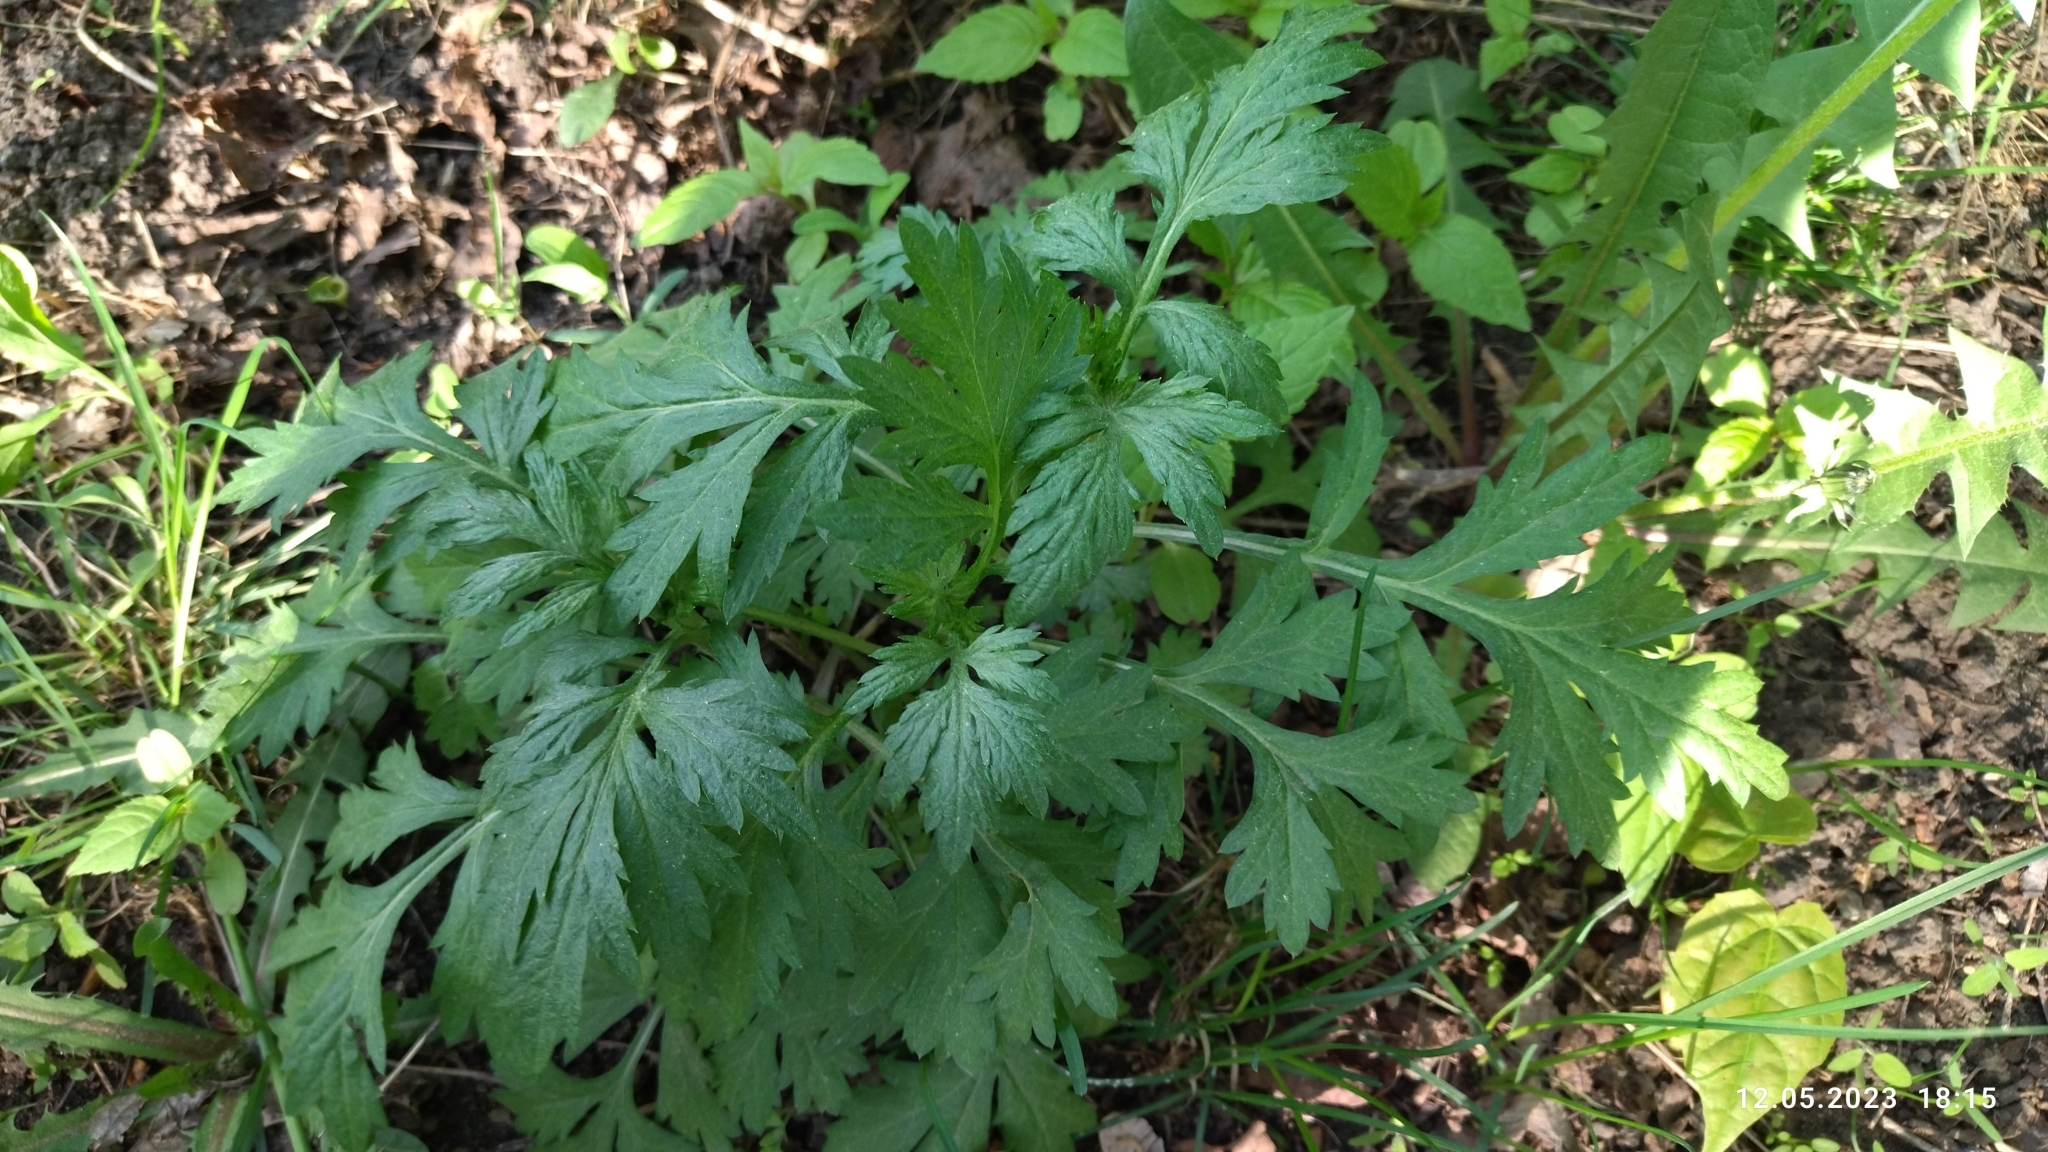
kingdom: Plantae
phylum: Tracheophyta
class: Magnoliopsida
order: Asterales
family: Asteraceae
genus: Artemisia
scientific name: Artemisia vulgaris
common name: Mugwort
